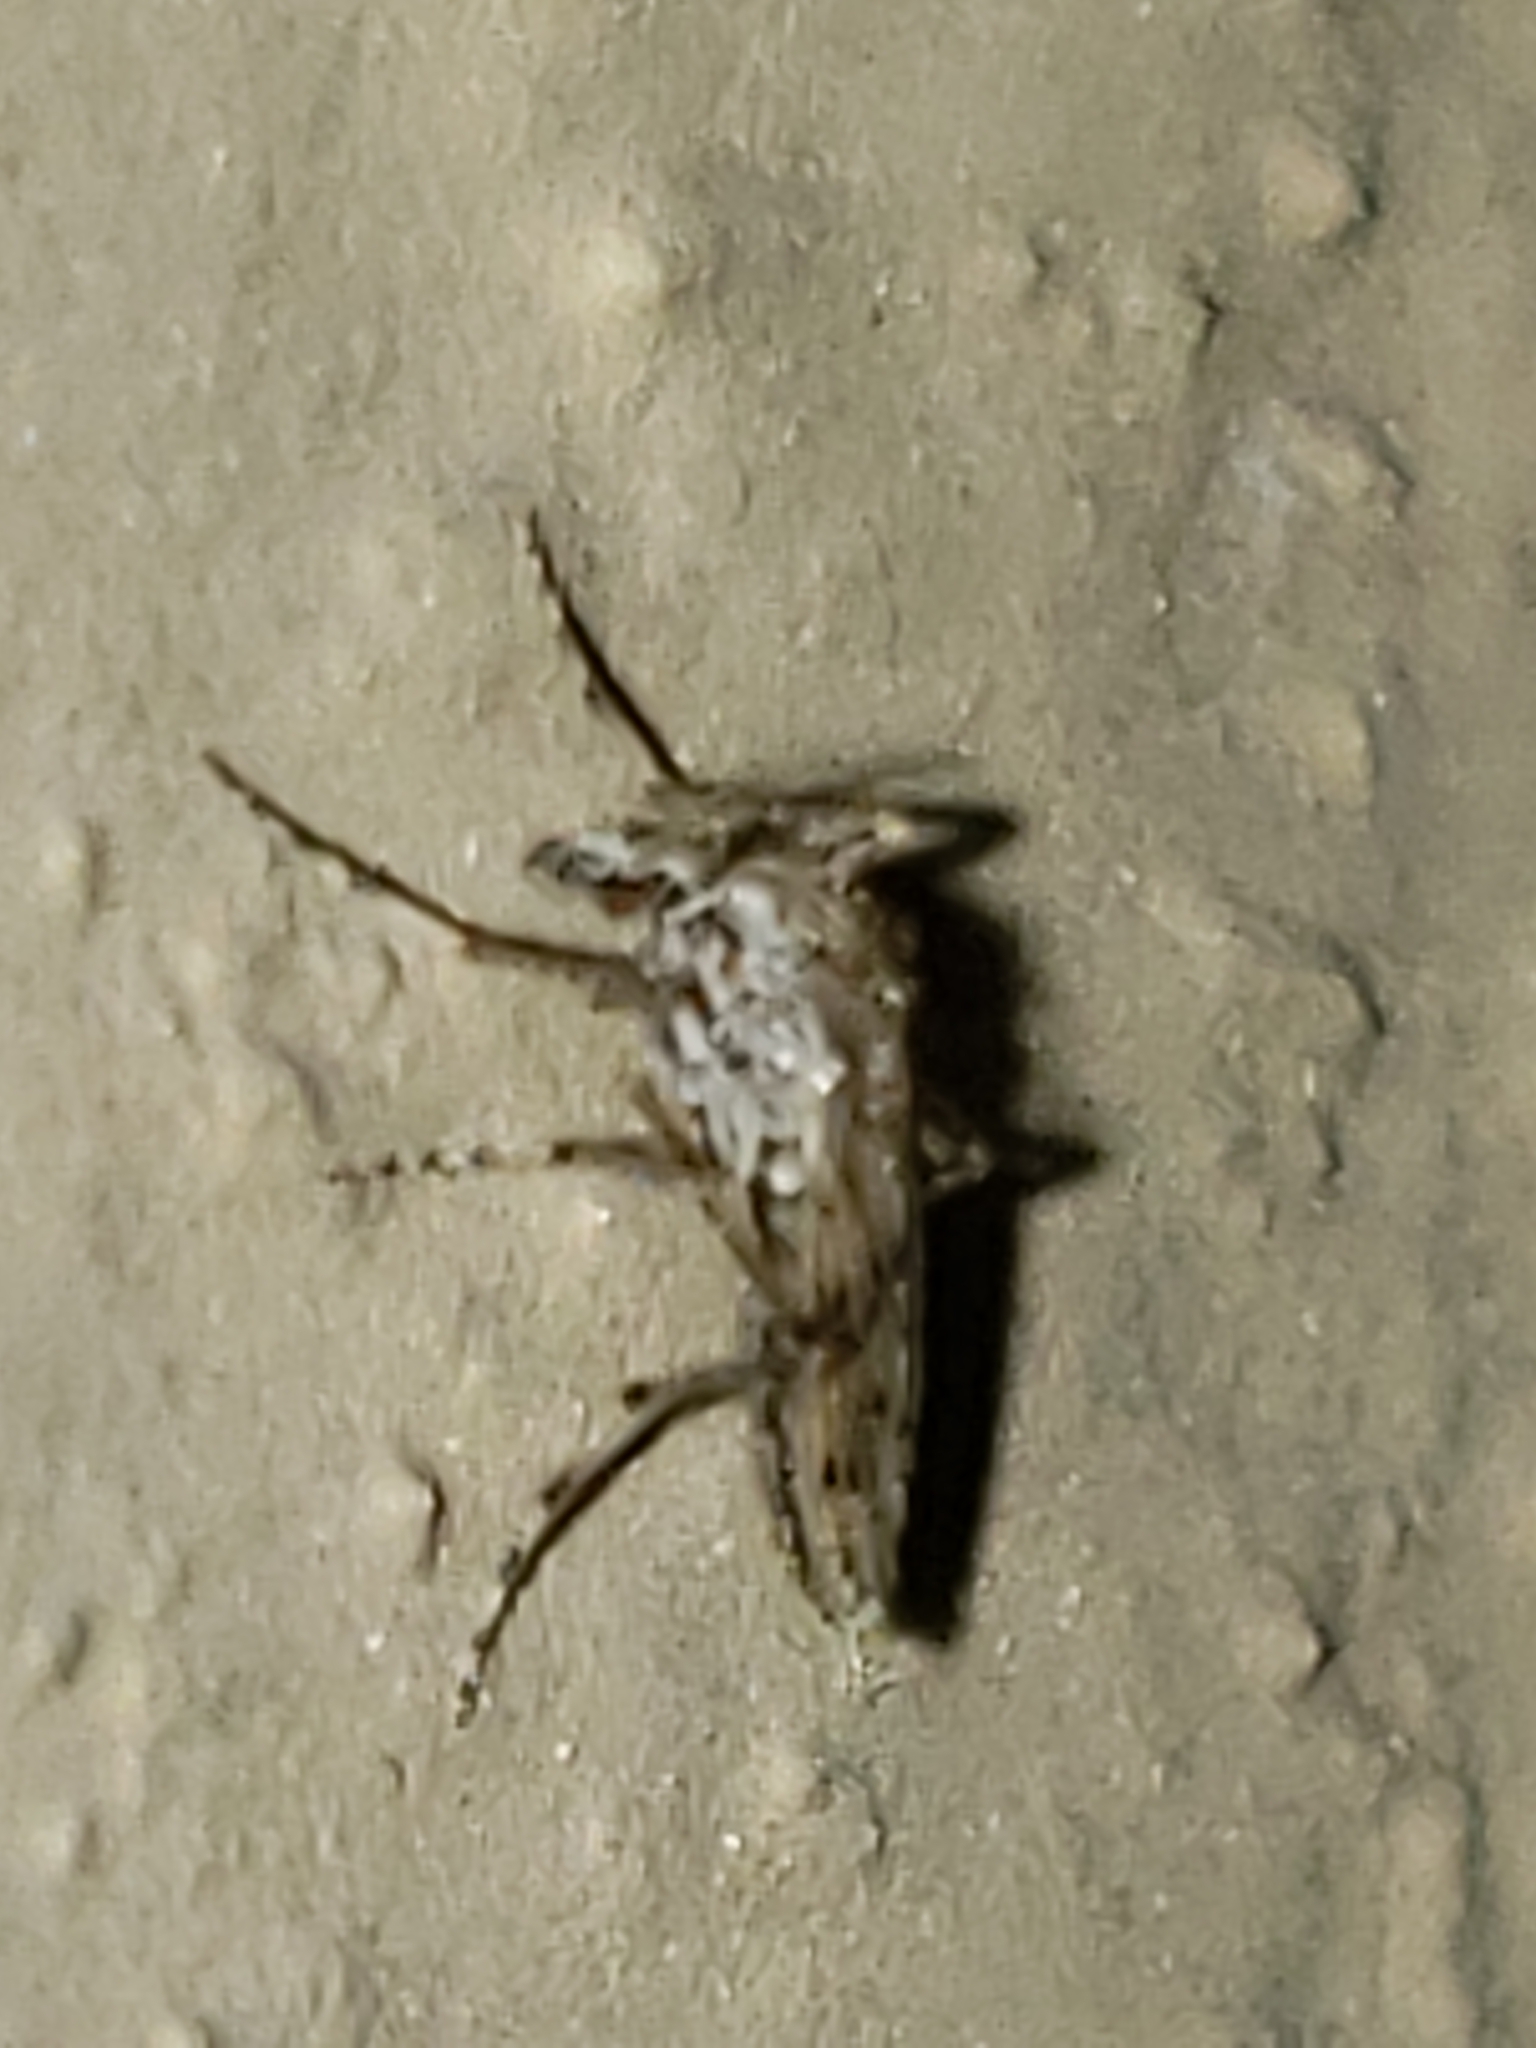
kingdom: Animalia
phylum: Arthropoda
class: Insecta
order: Diptera
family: Chaoboridae
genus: Chaoborus
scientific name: Chaoborus punctipennis
